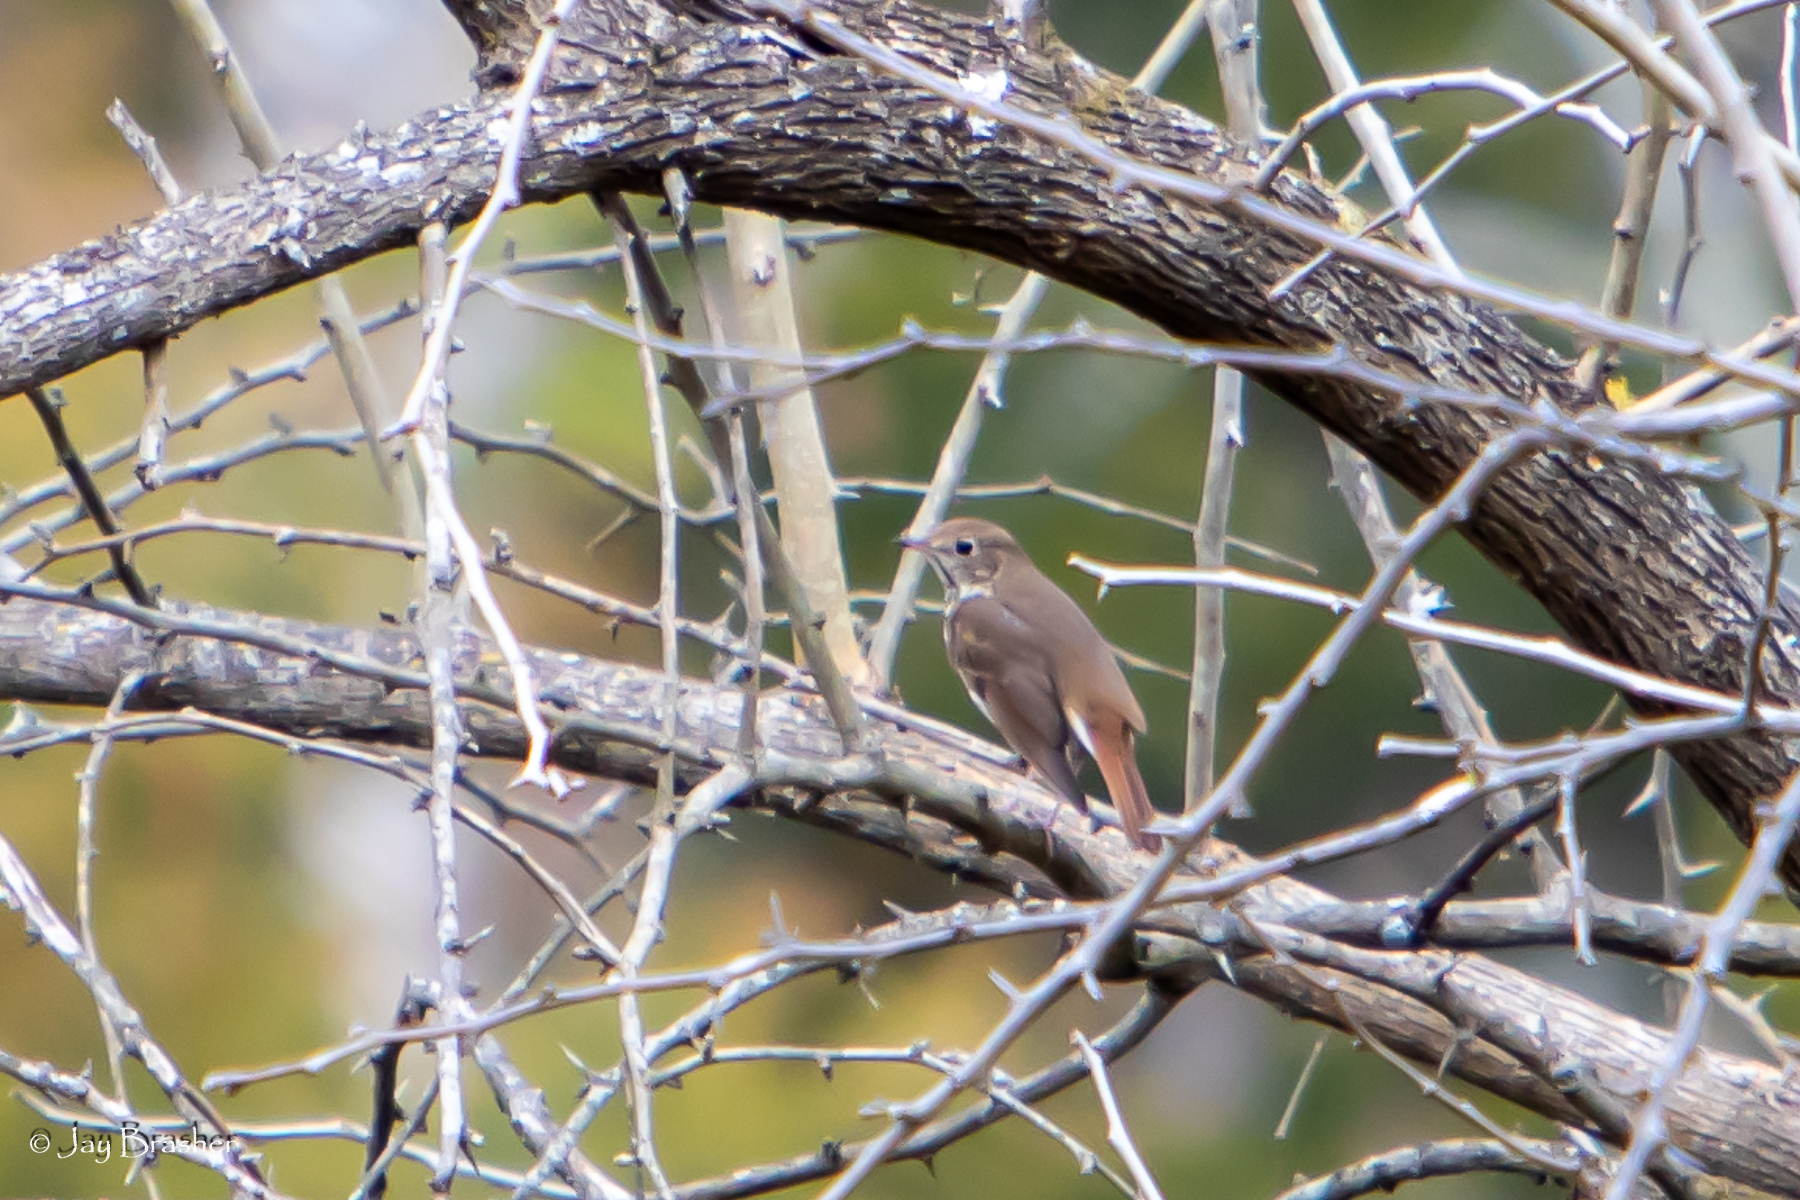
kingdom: Animalia
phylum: Chordata
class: Aves
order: Passeriformes
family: Turdidae
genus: Catharus
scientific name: Catharus guttatus
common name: Hermit thrush
